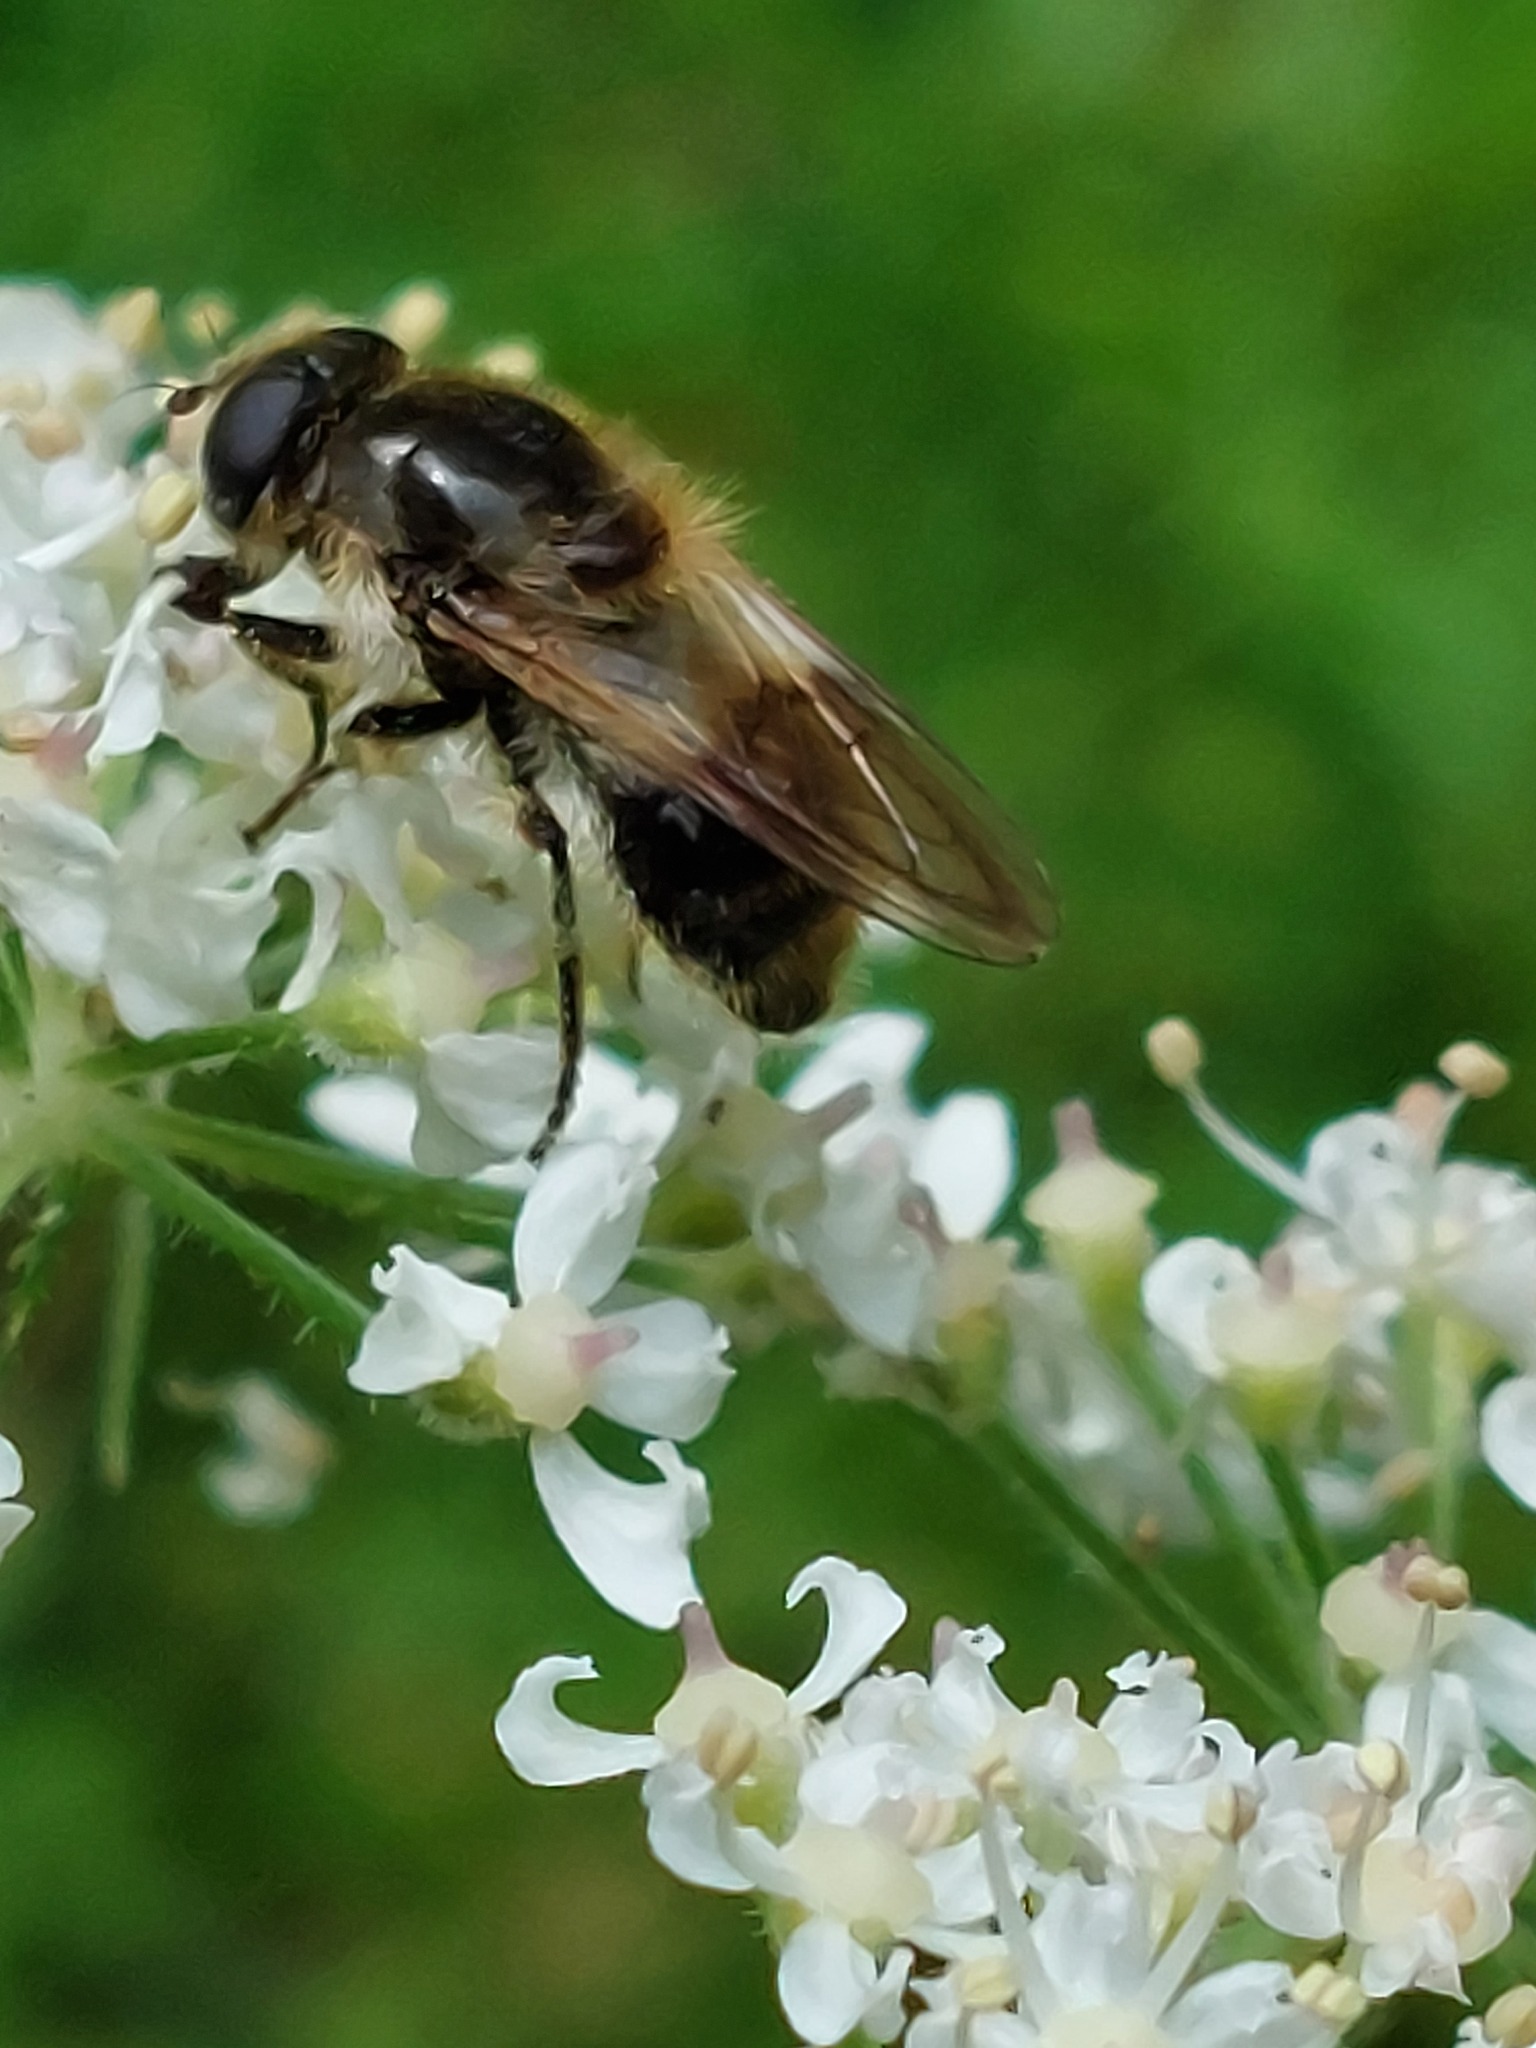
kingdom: Animalia
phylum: Arthropoda
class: Insecta
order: Diptera
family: Syrphidae
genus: Cheilosia
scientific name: Cheilosia illustrata
